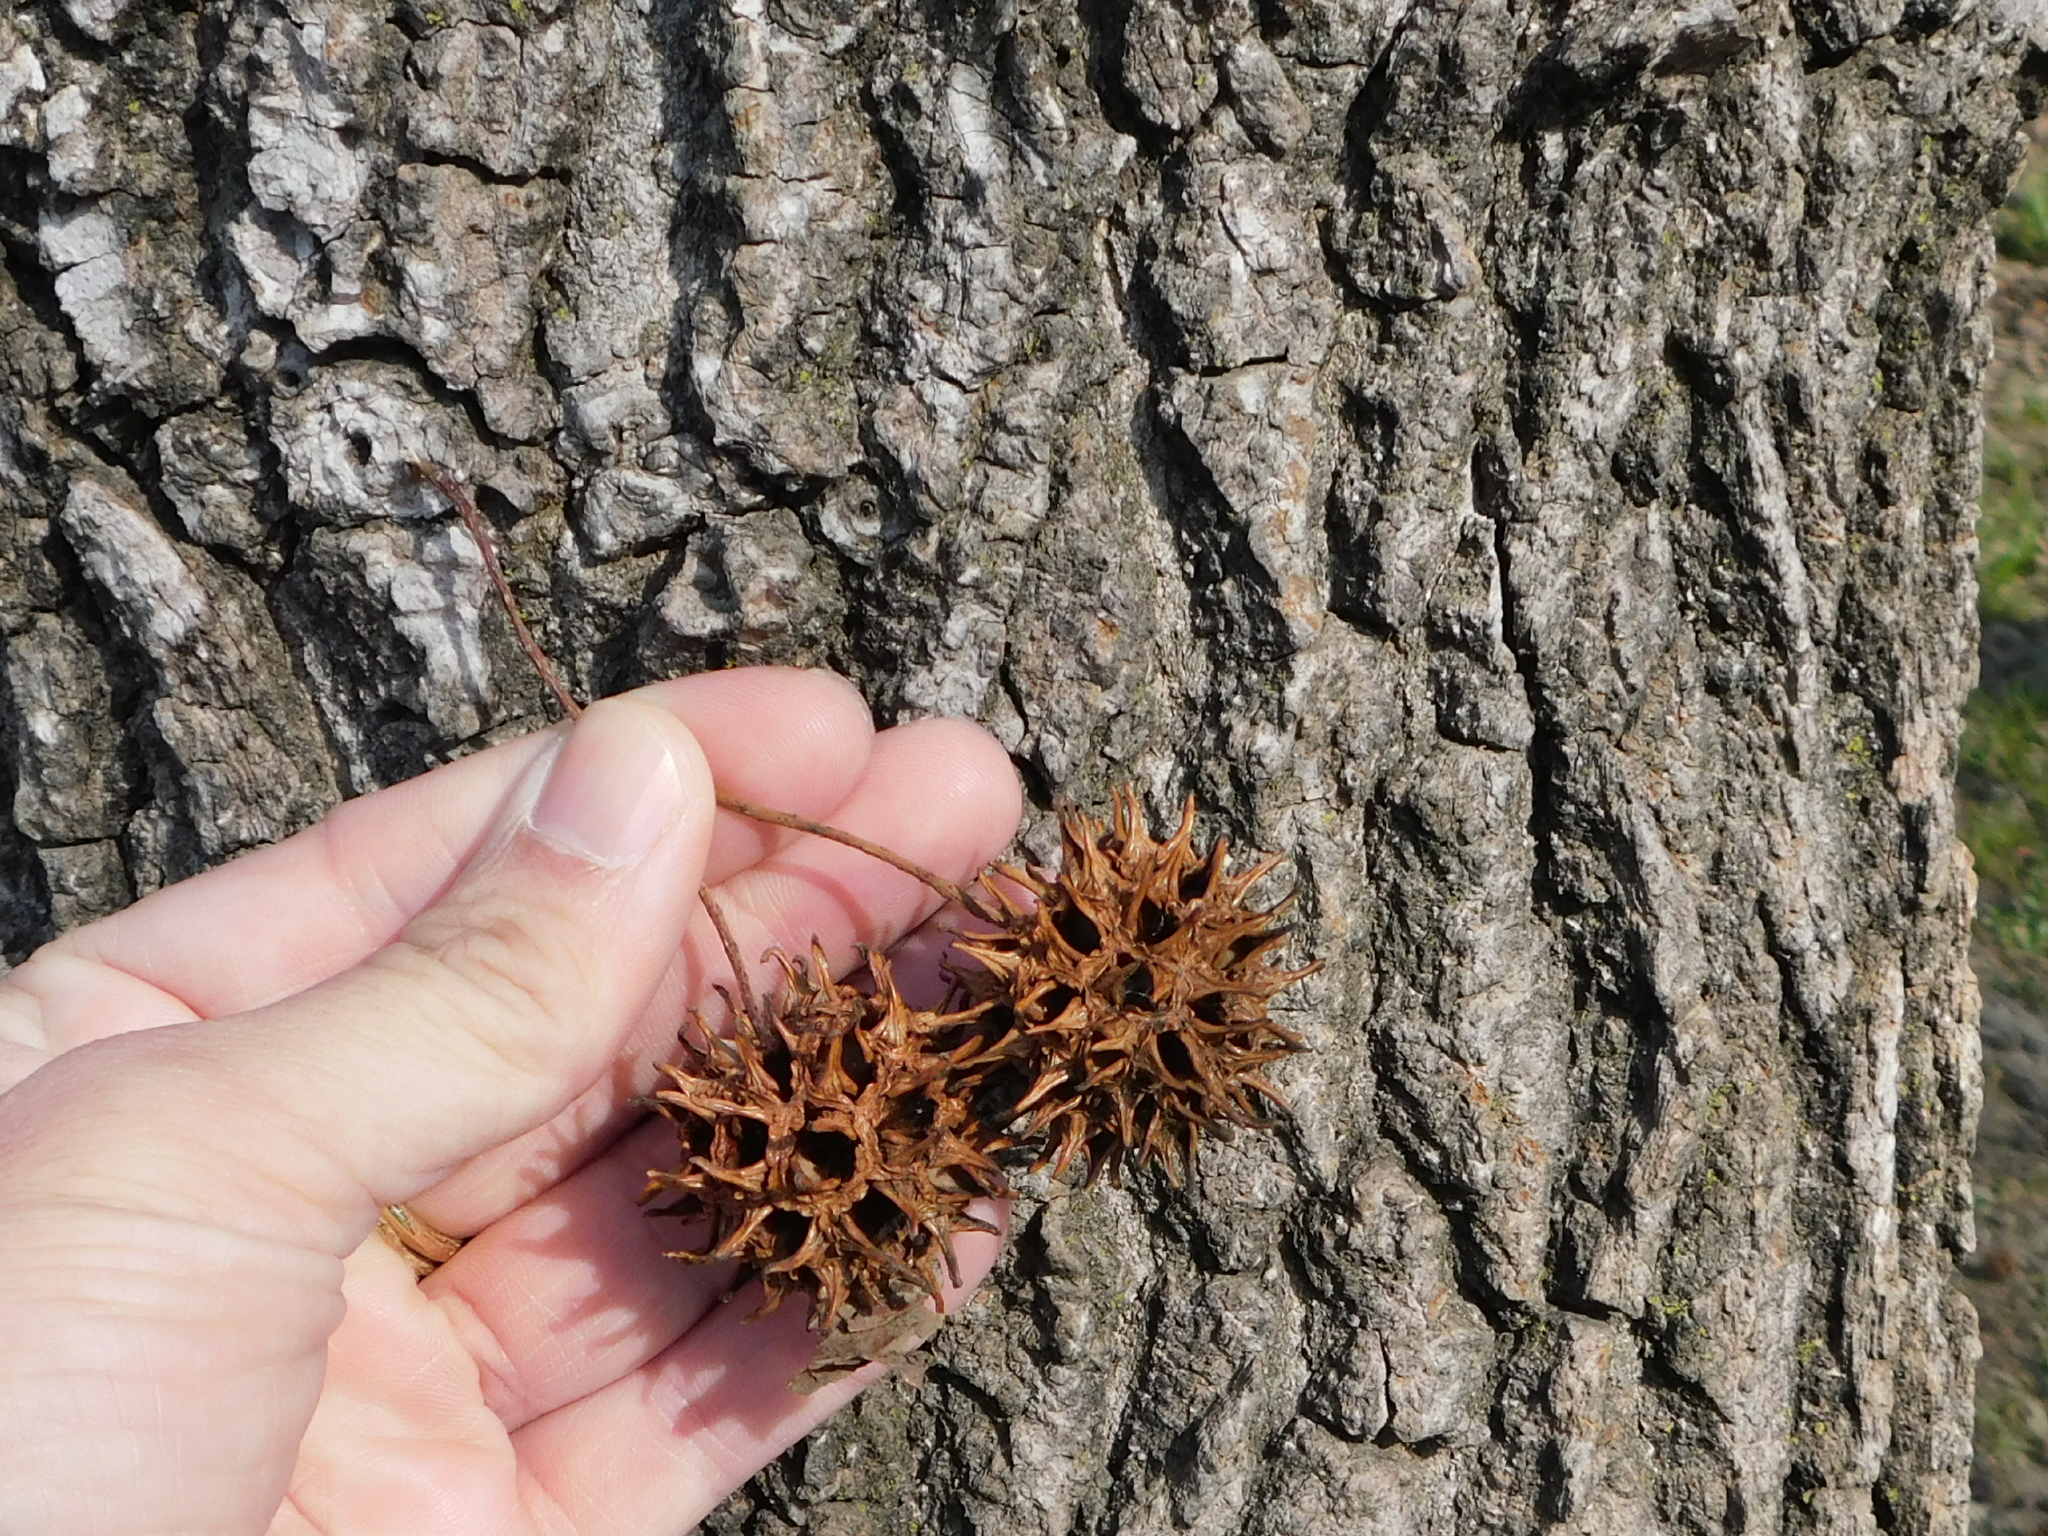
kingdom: Plantae
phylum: Tracheophyta
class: Magnoliopsida
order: Saxifragales
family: Altingiaceae
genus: Liquidambar
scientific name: Liquidambar styraciflua
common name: Sweet gum
